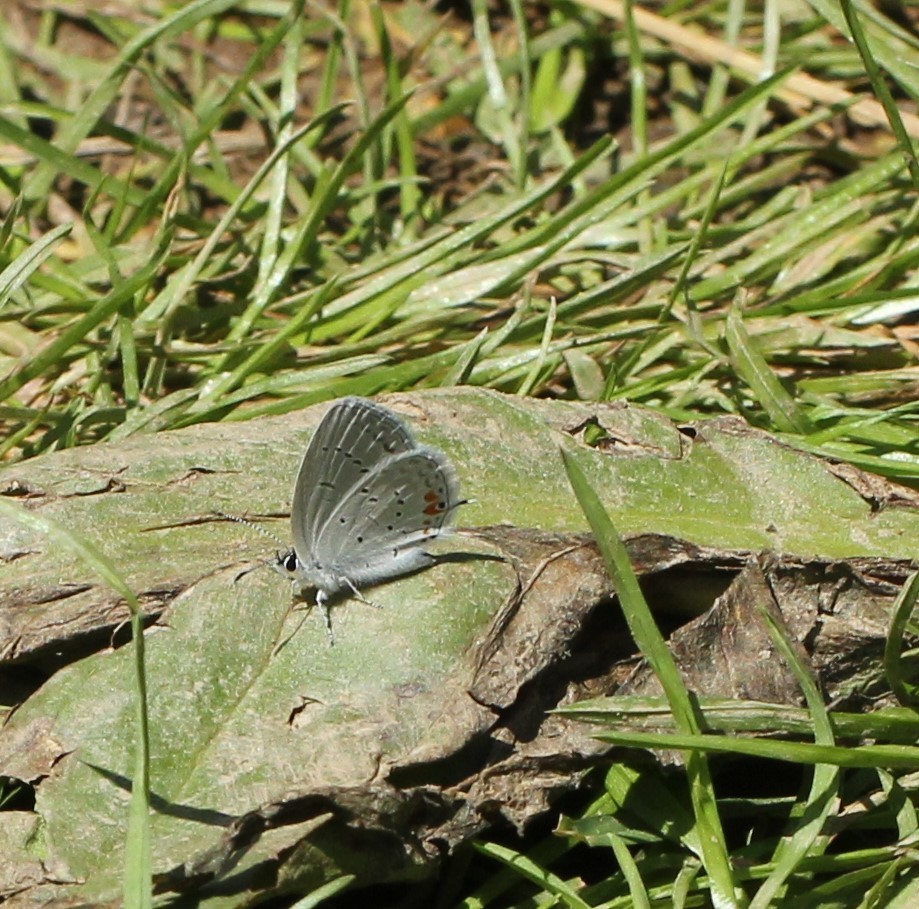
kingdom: Animalia
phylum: Arthropoda
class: Insecta
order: Lepidoptera
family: Lycaenidae
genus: Elkalyce
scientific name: Elkalyce comyntas
